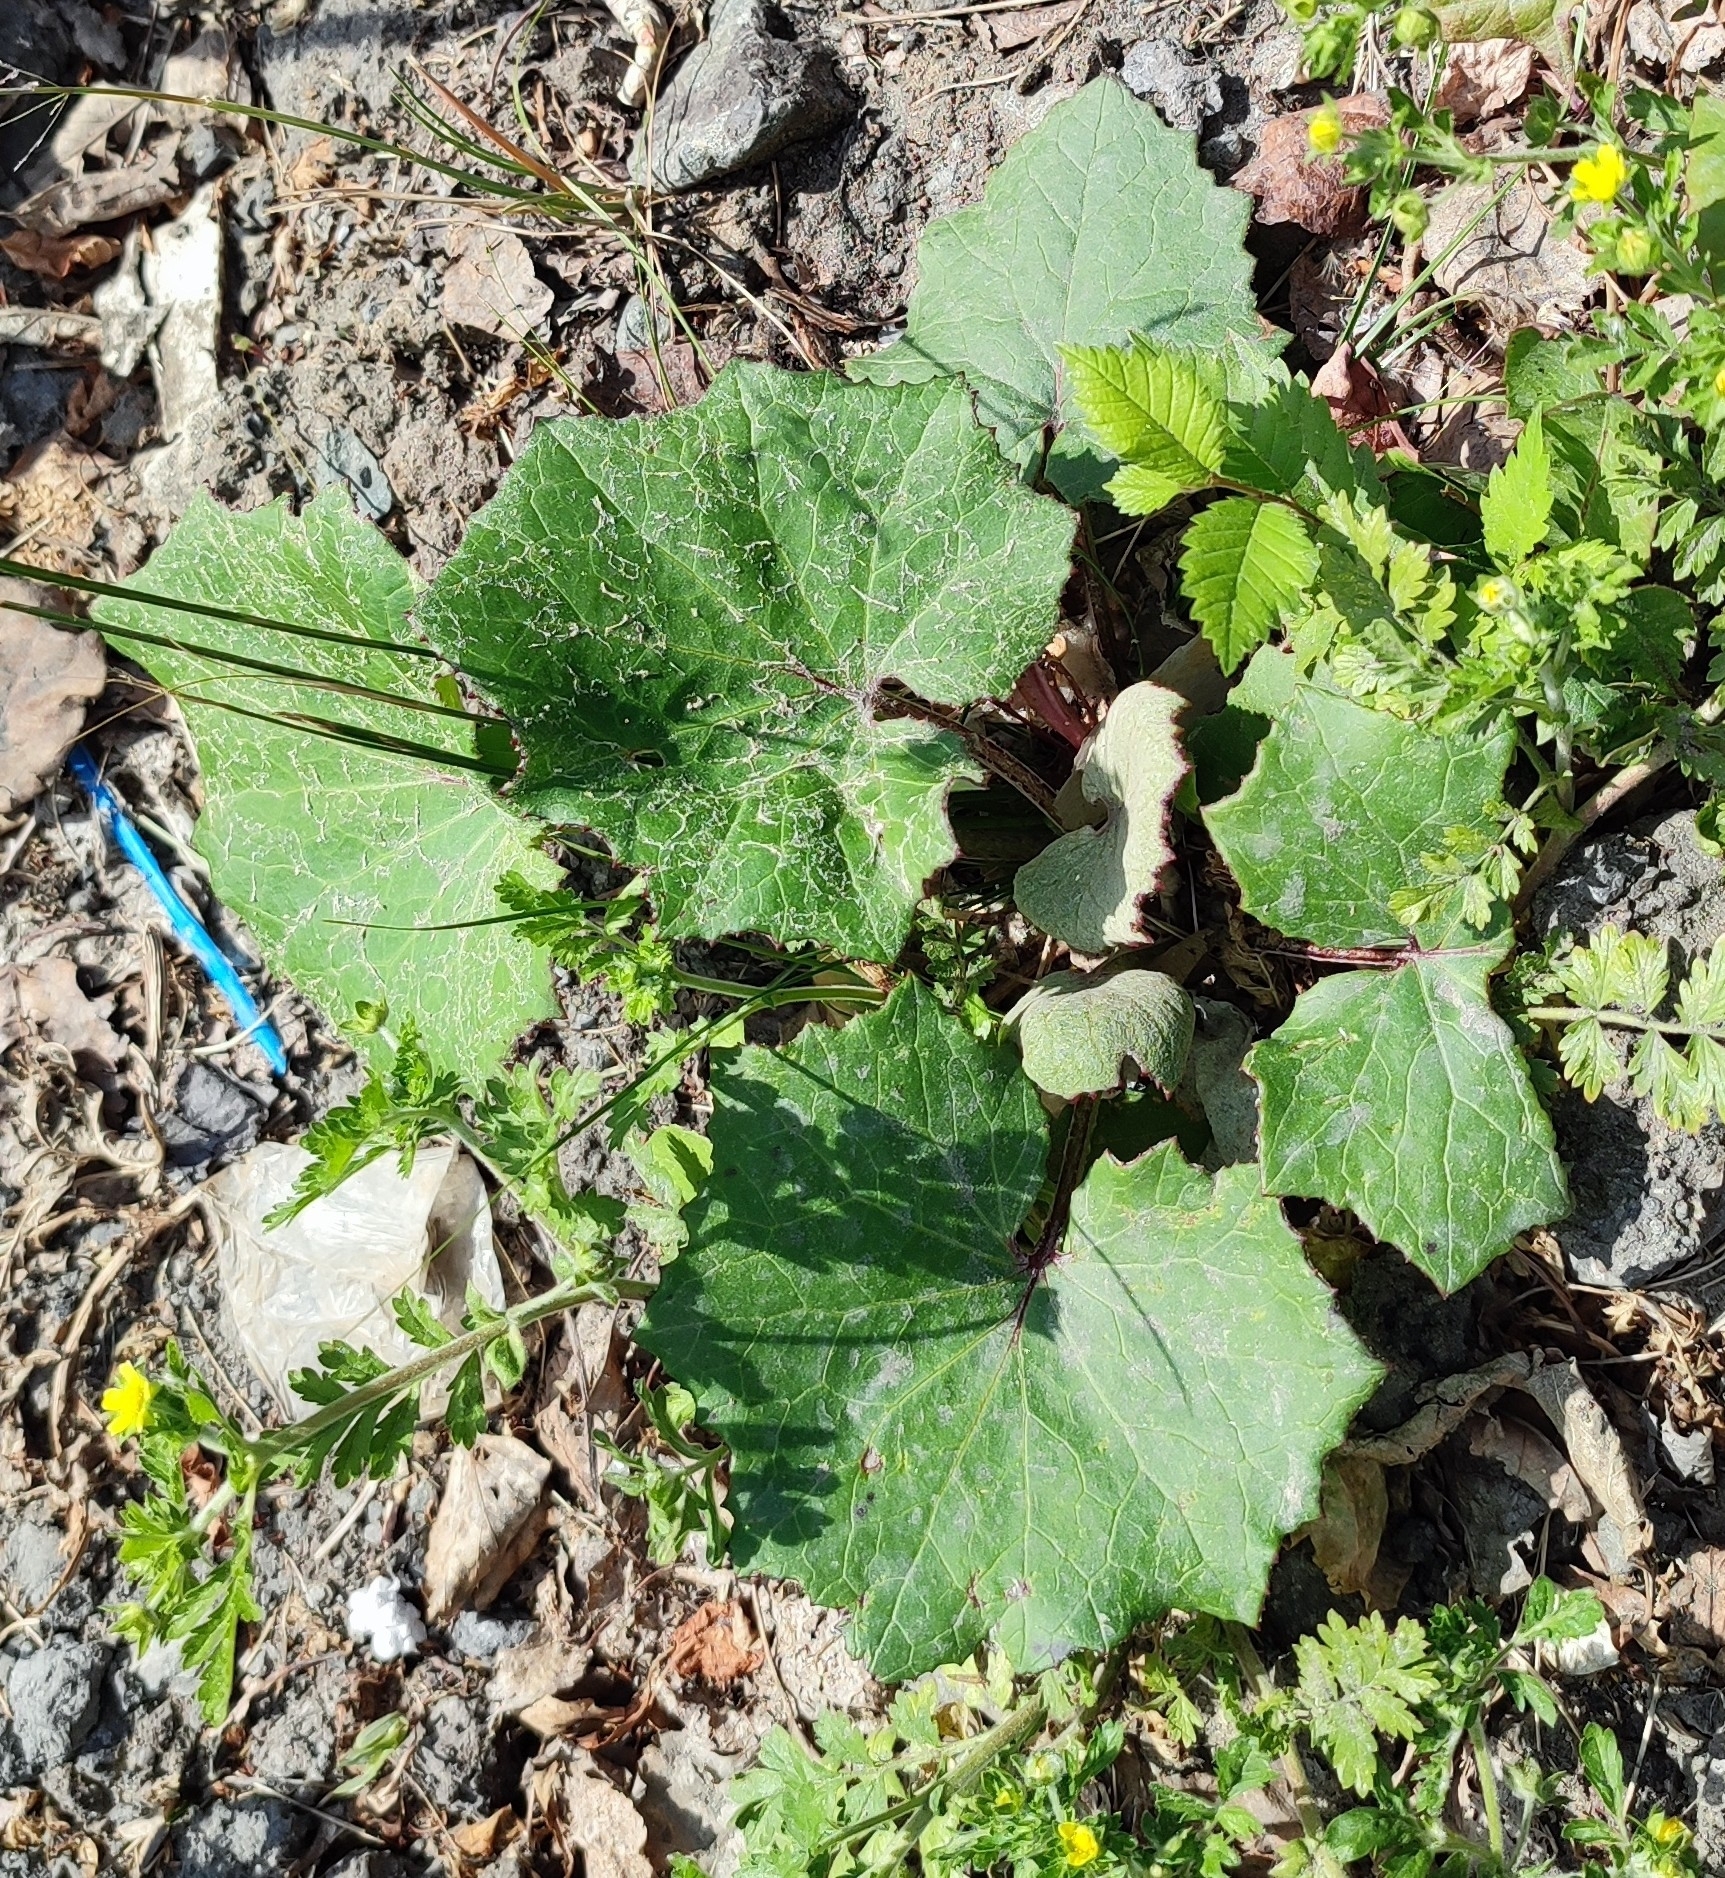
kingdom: Plantae
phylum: Tracheophyta
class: Magnoliopsida
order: Asterales
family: Asteraceae
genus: Tussilago
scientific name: Tussilago farfara
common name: Coltsfoot
